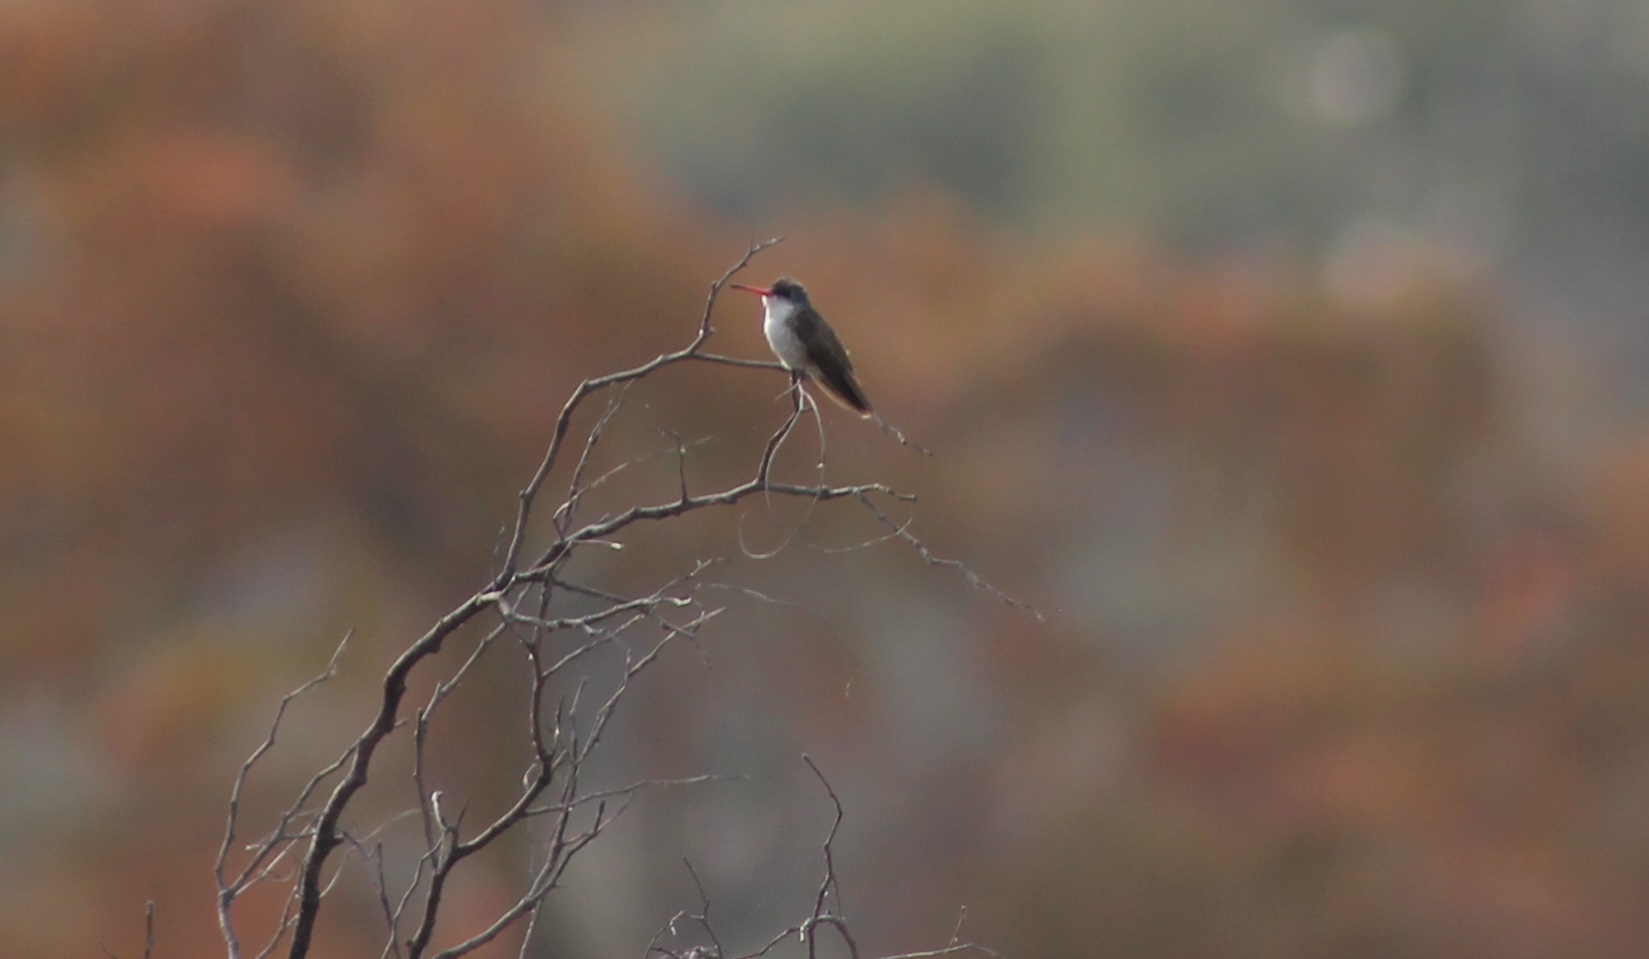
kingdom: Animalia
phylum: Chordata
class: Aves
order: Apodiformes
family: Trochilidae
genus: Leucolia
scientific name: Leucolia violiceps
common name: Violet-crowned hummingbird
